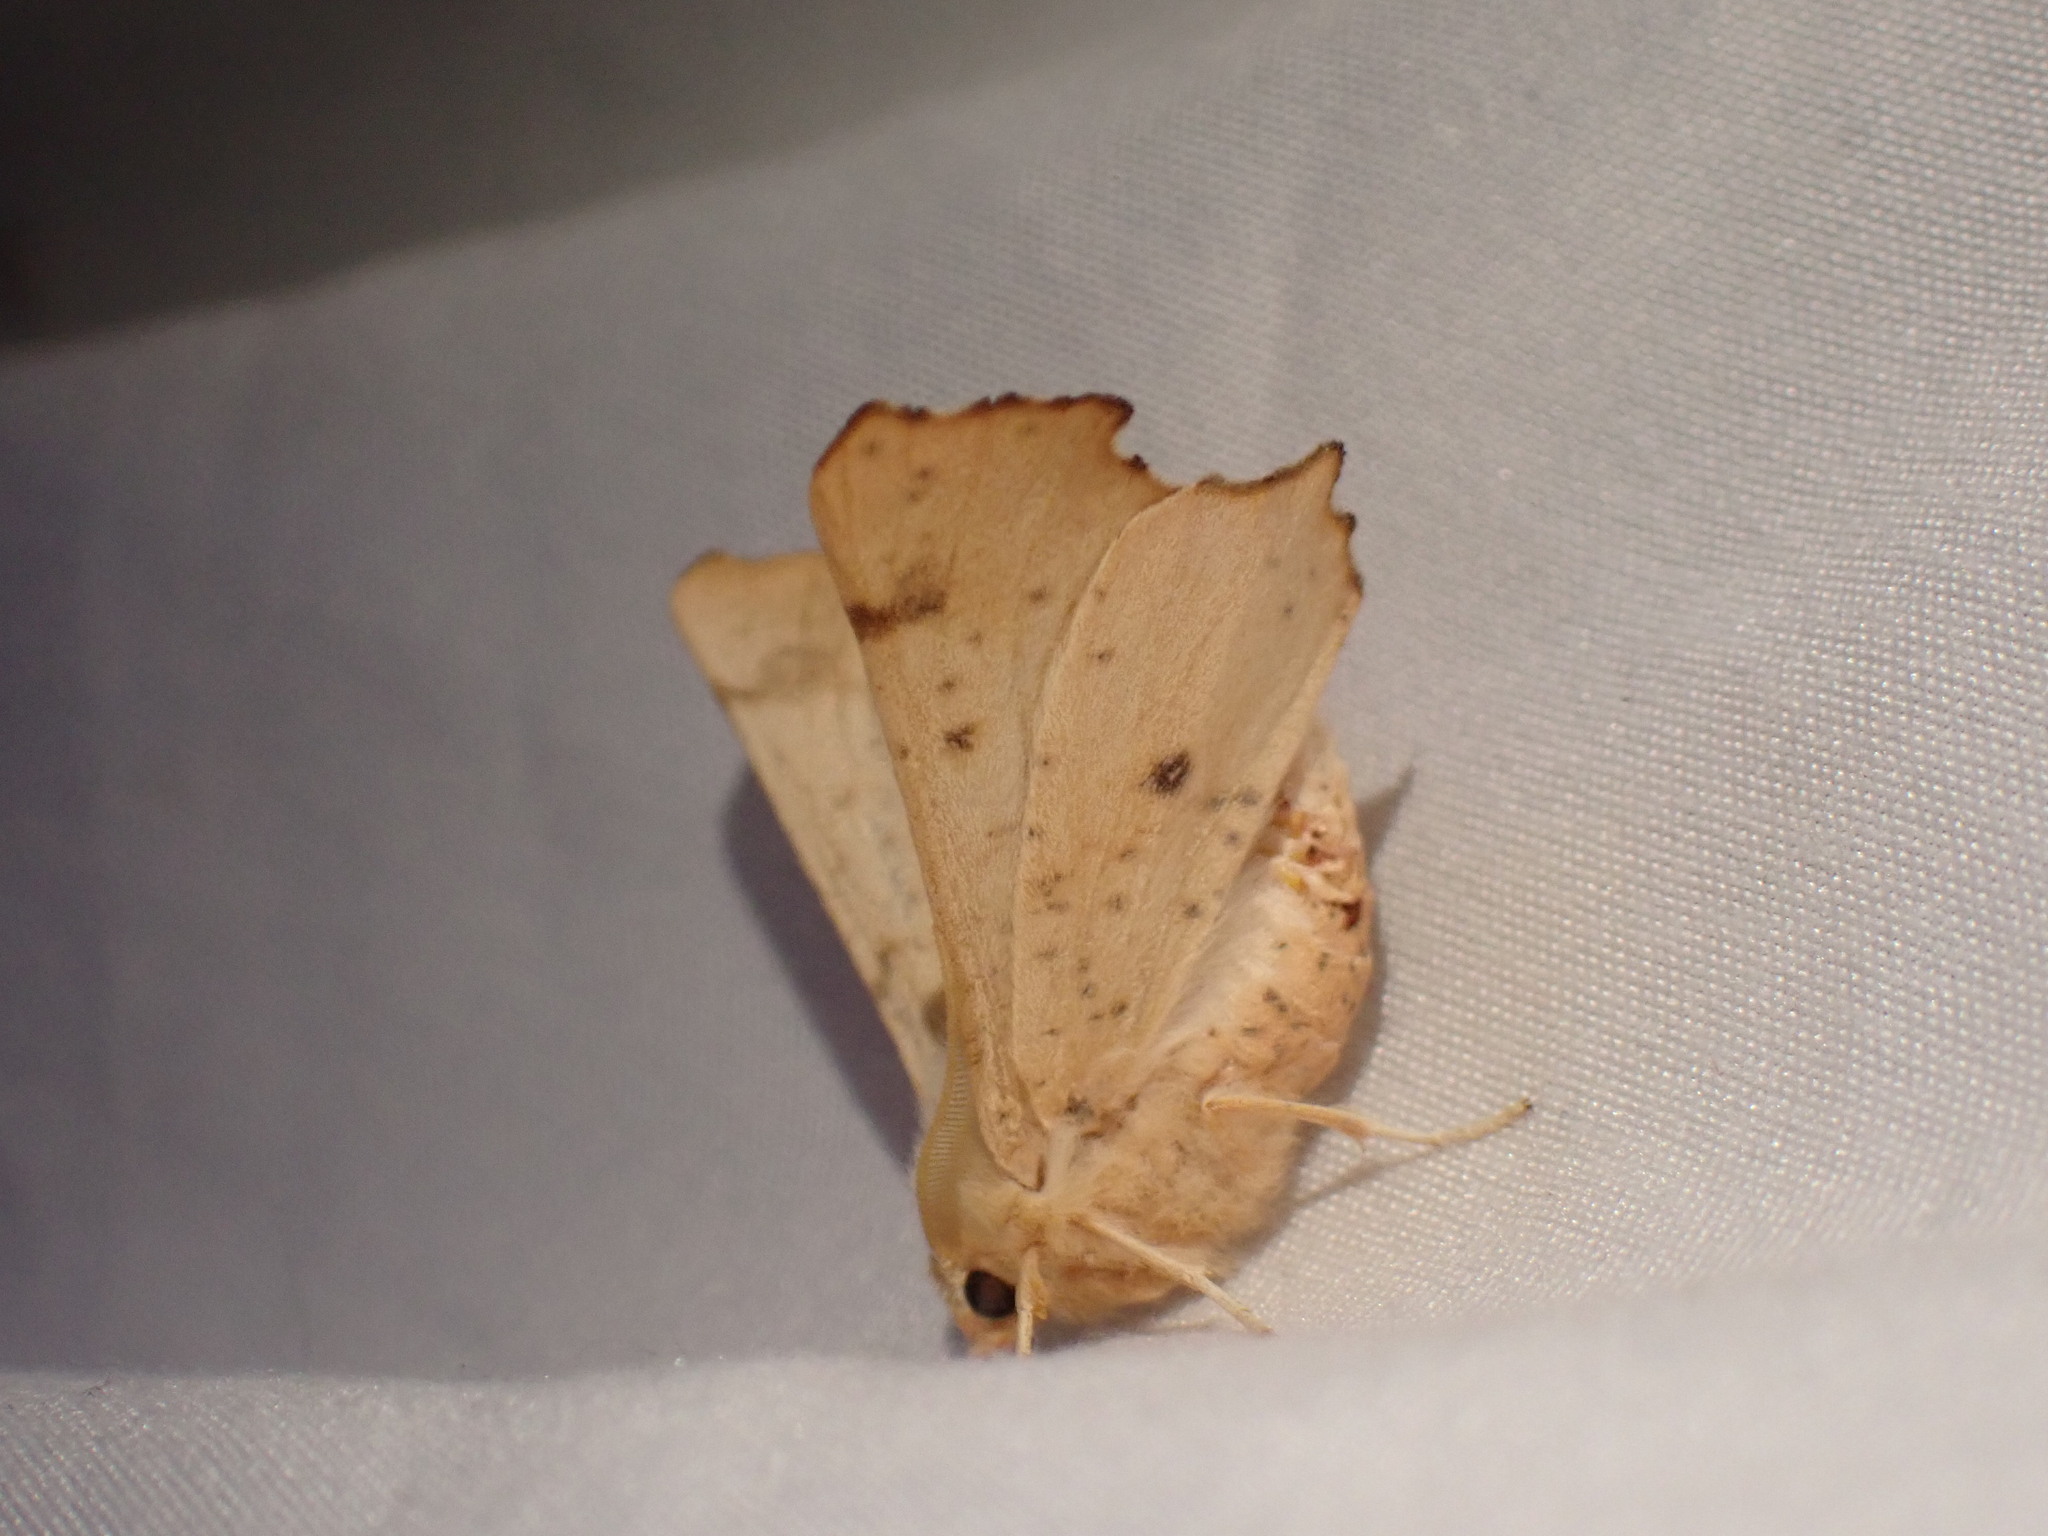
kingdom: Animalia
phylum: Arthropoda
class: Insecta
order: Lepidoptera
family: Geometridae
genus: Ennomos
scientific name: Ennomos magnaria
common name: Maple spanworm
